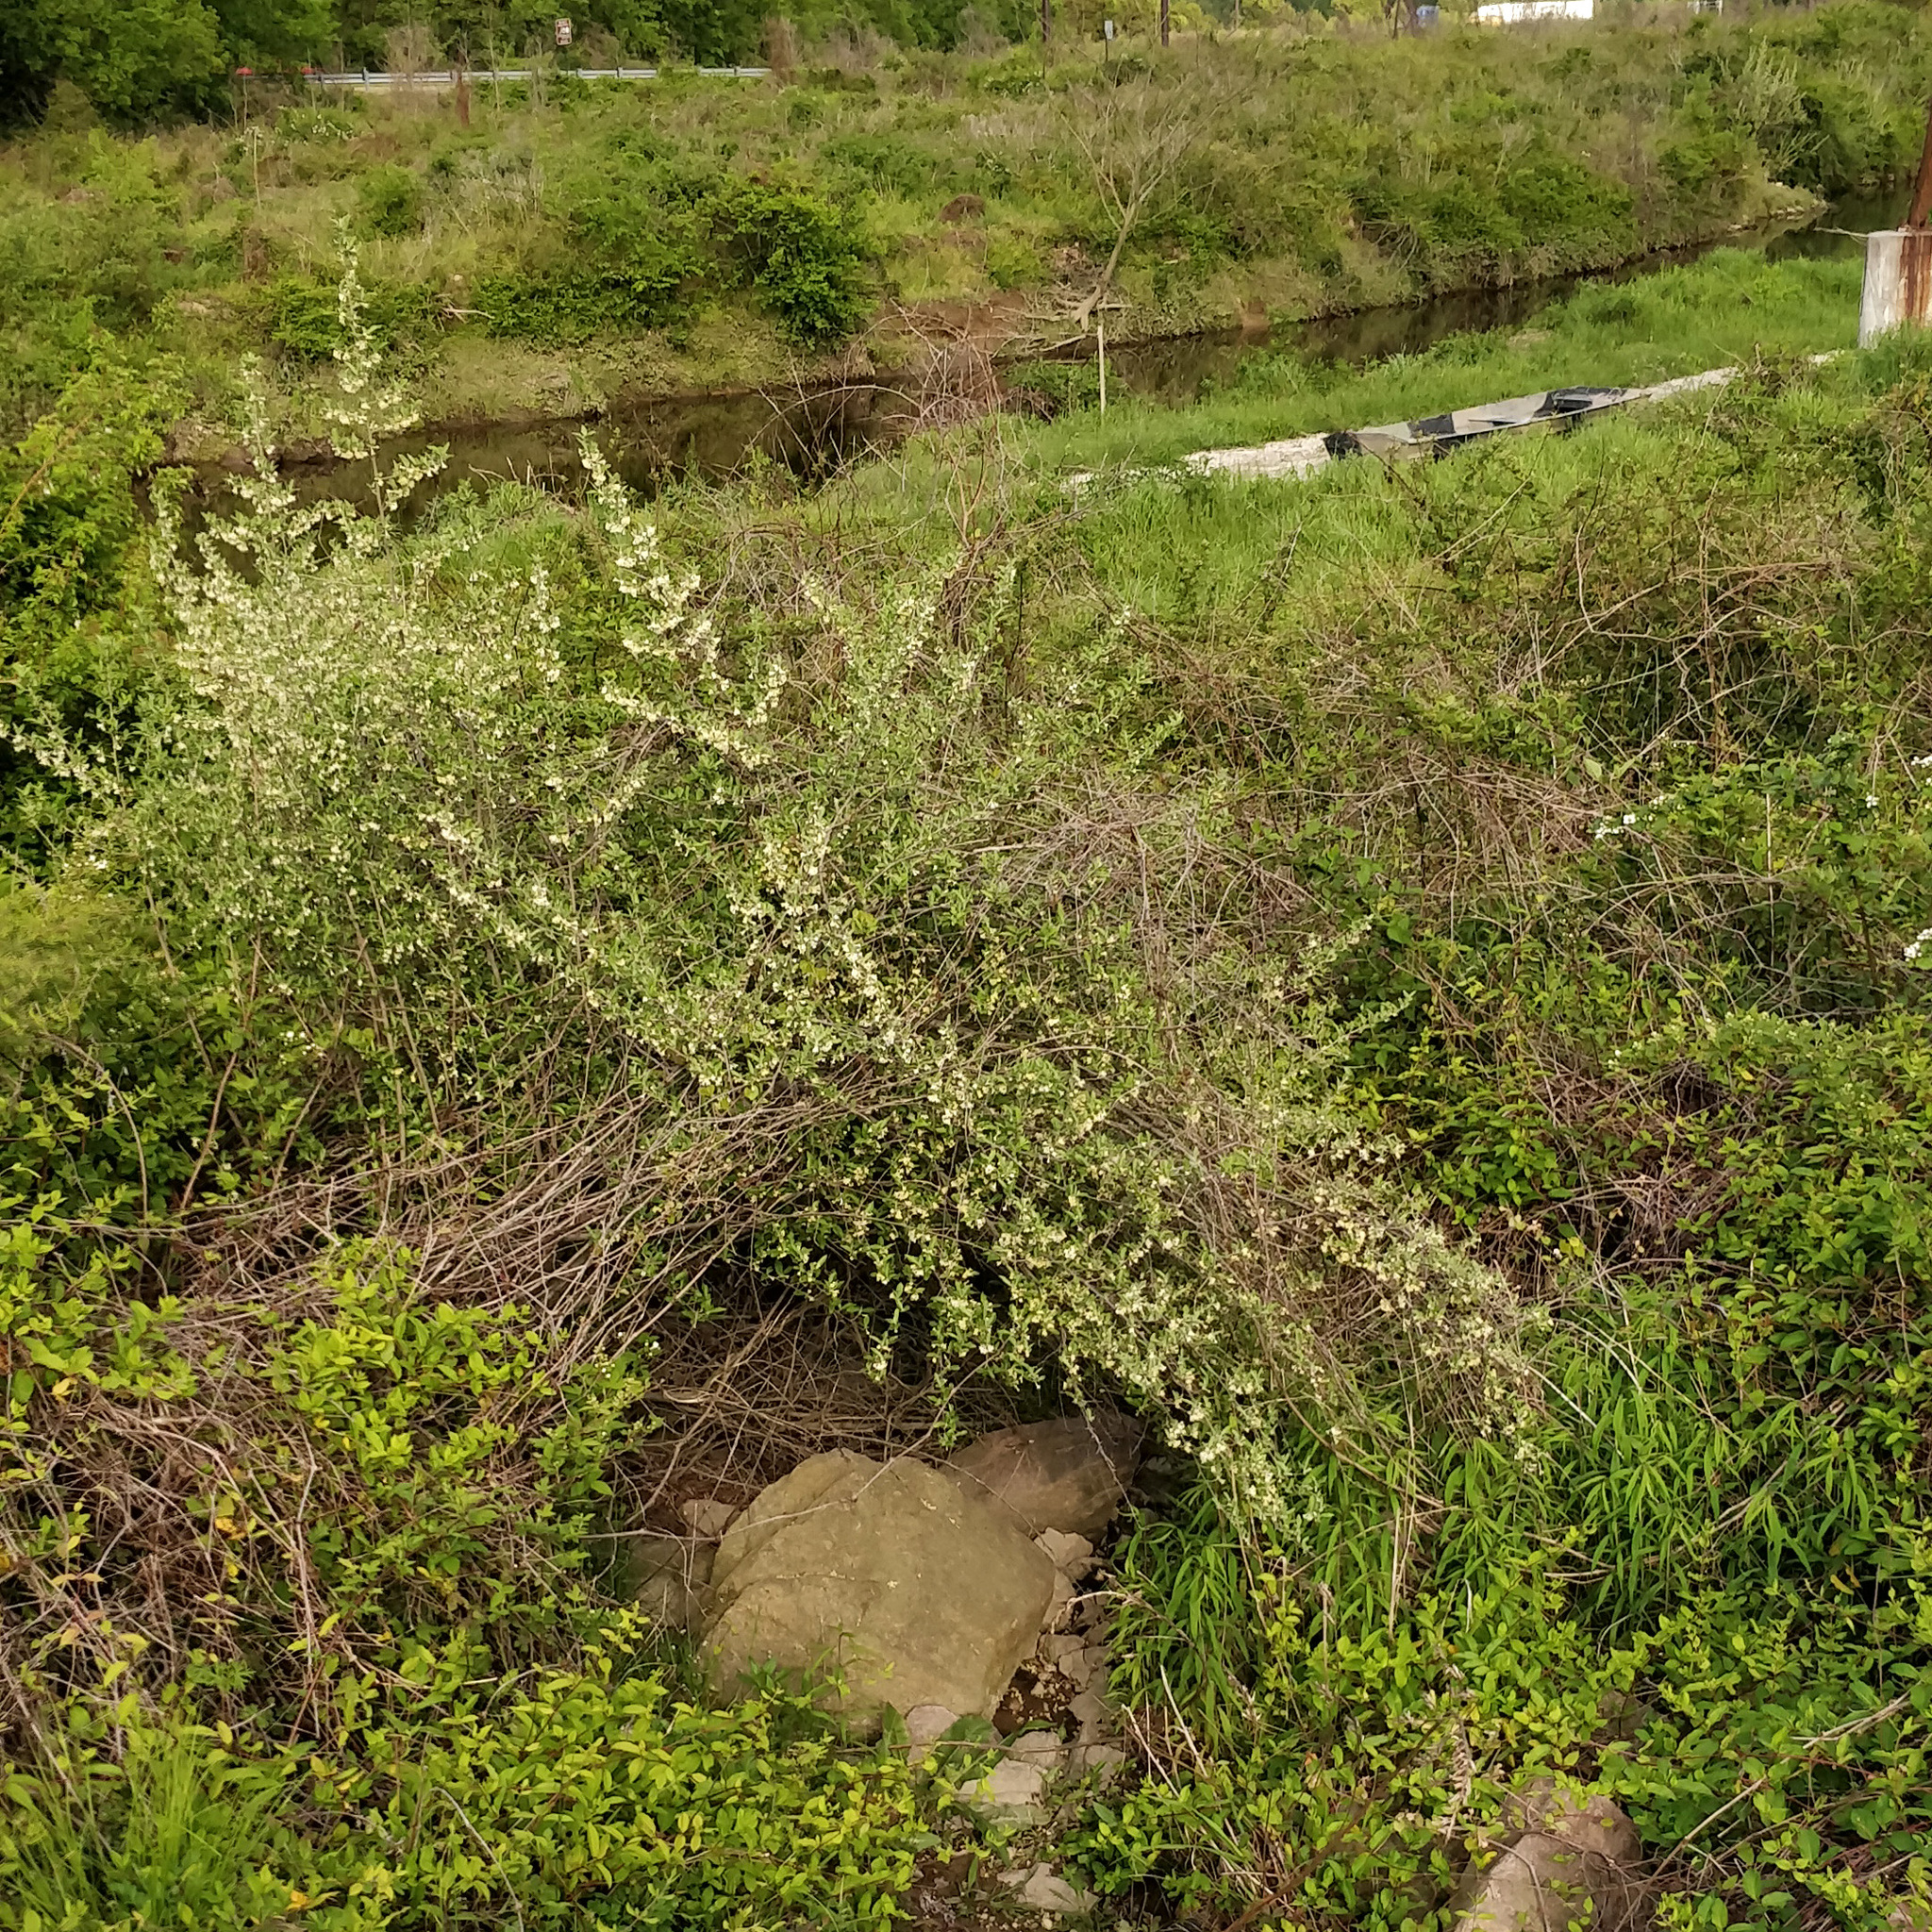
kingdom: Plantae
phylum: Tracheophyta
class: Magnoliopsida
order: Rosales
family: Elaeagnaceae
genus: Elaeagnus
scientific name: Elaeagnus umbellata
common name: Autumn olive
